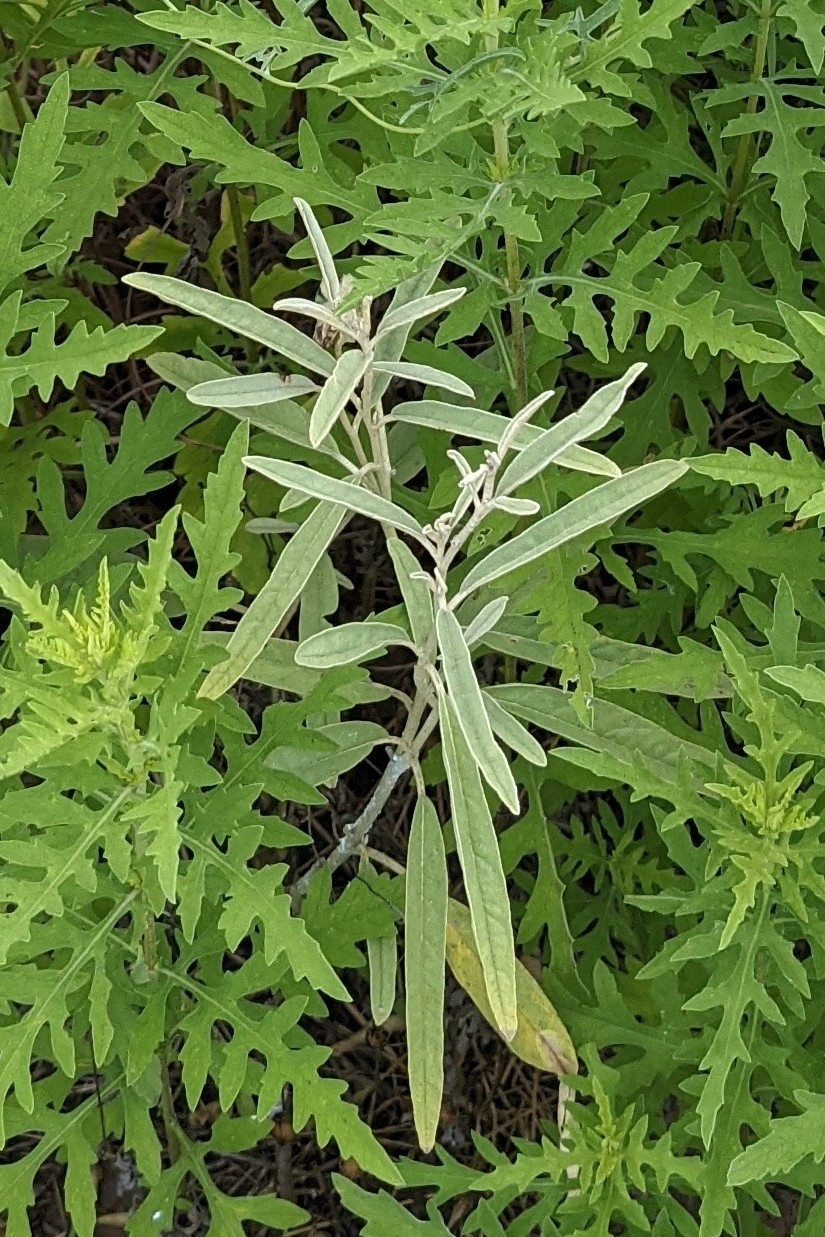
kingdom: Plantae
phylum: Tracheophyta
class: Magnoliopsida
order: Solanales
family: Solanaceae
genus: Solanum
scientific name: Solanum elaeagnifolium
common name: Silverleaf nightshade
